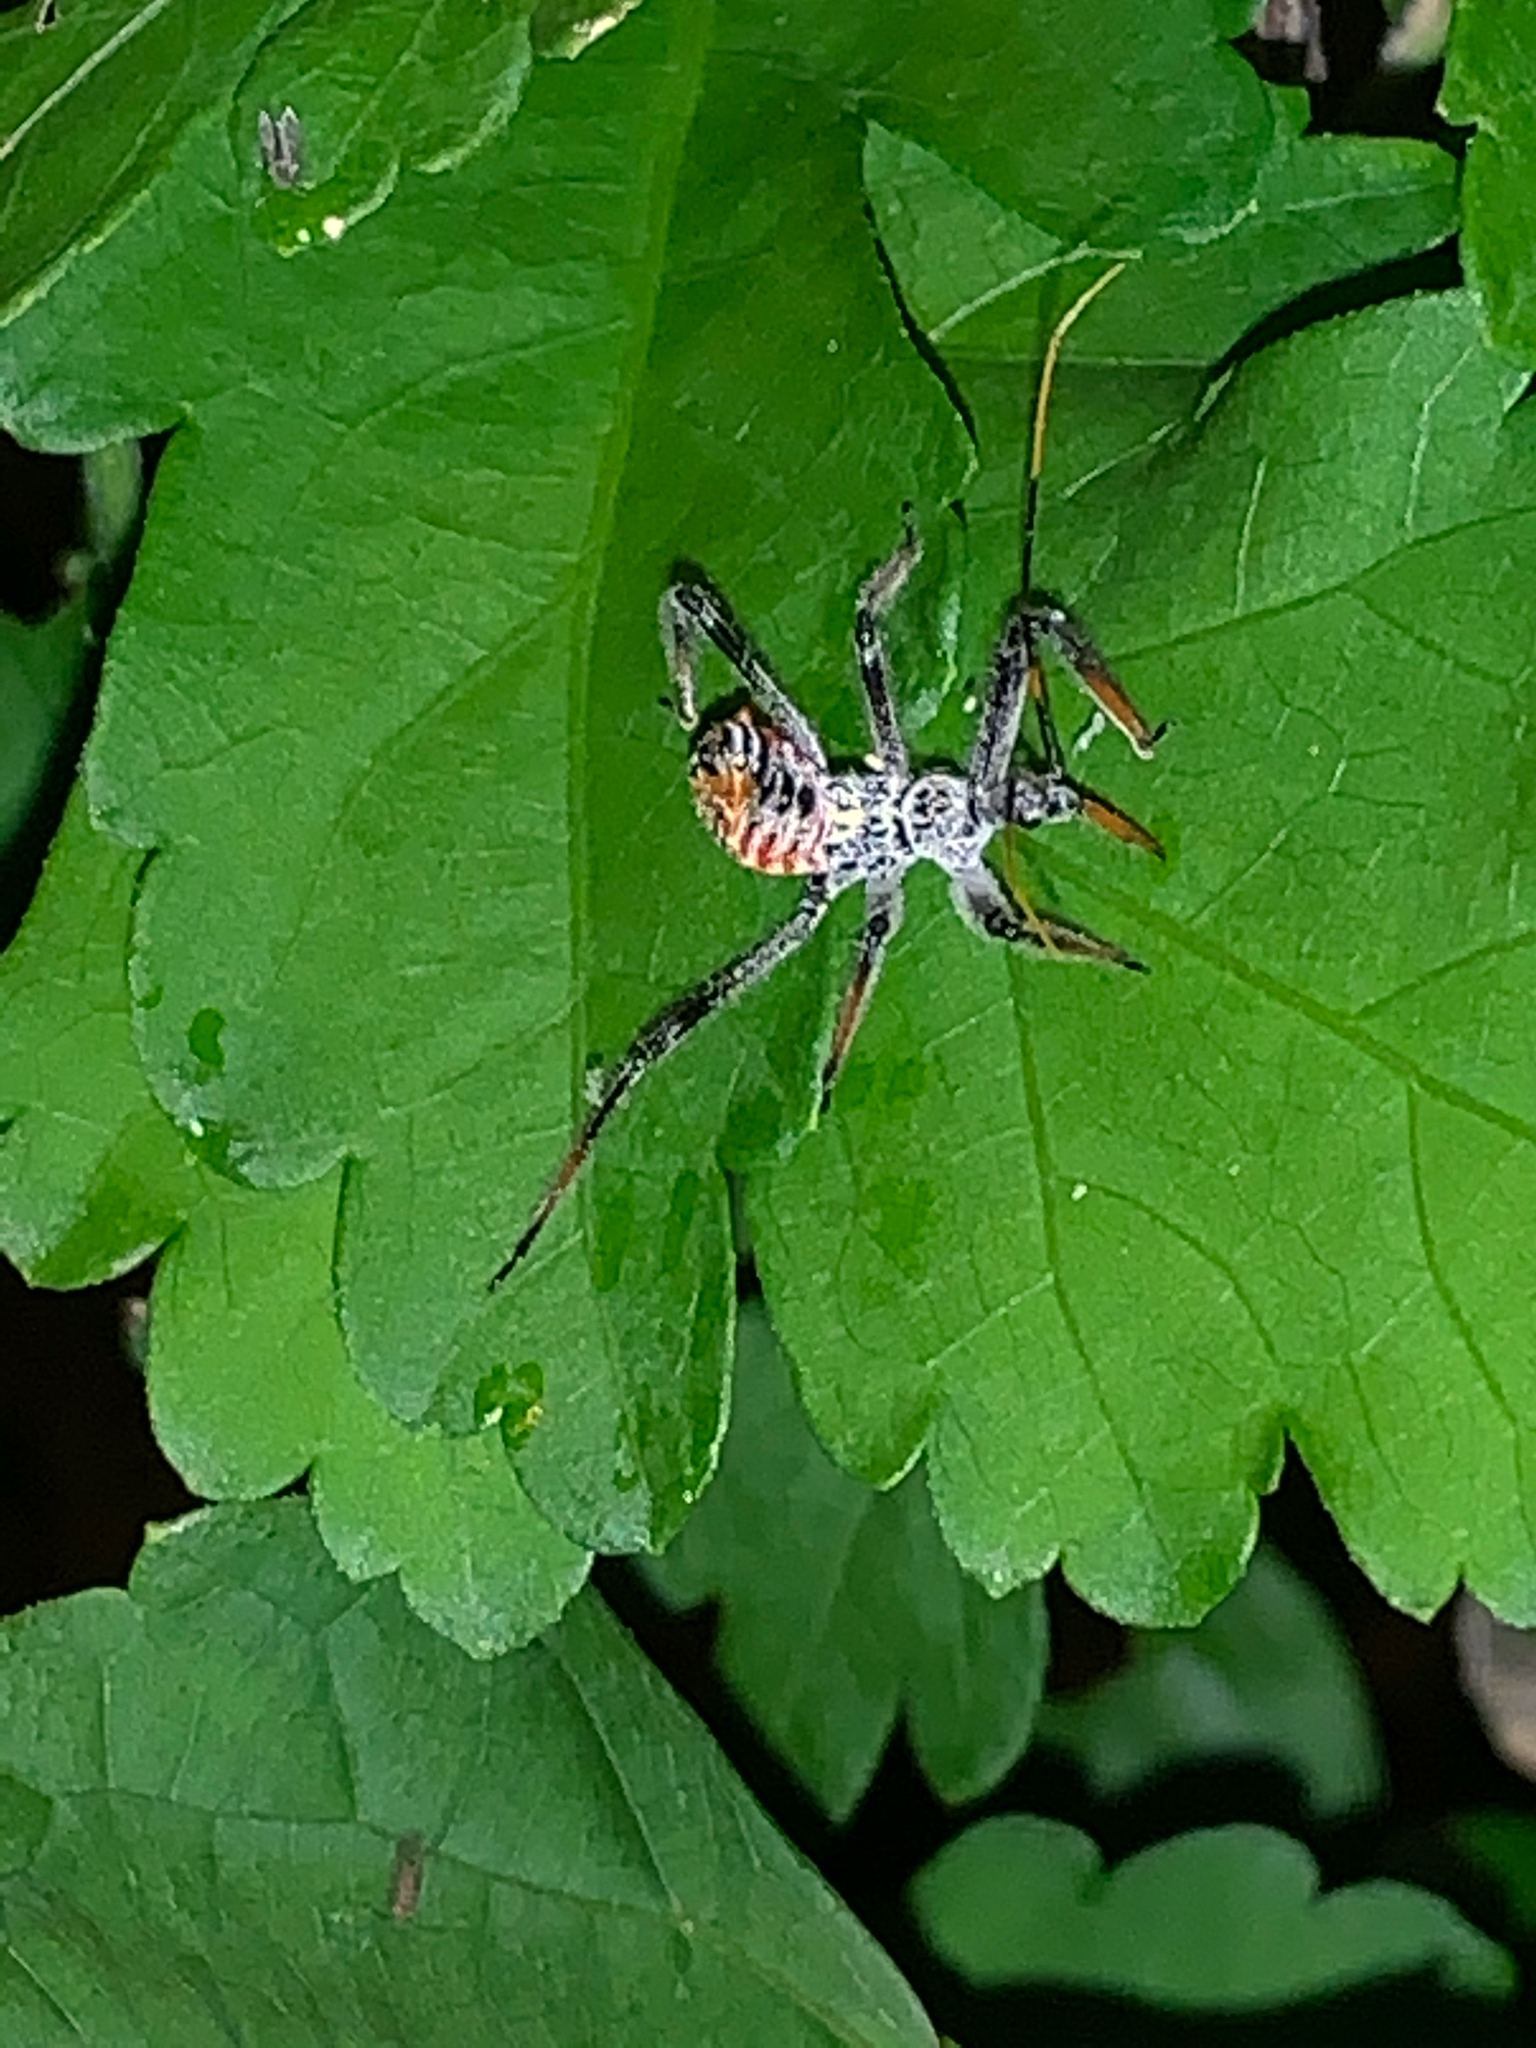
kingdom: Animalia
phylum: Arthropoda
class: Insecta
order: Hemiptera
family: Reduviidae
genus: Arilus
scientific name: Arilus cristatus
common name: North american wheel bug
